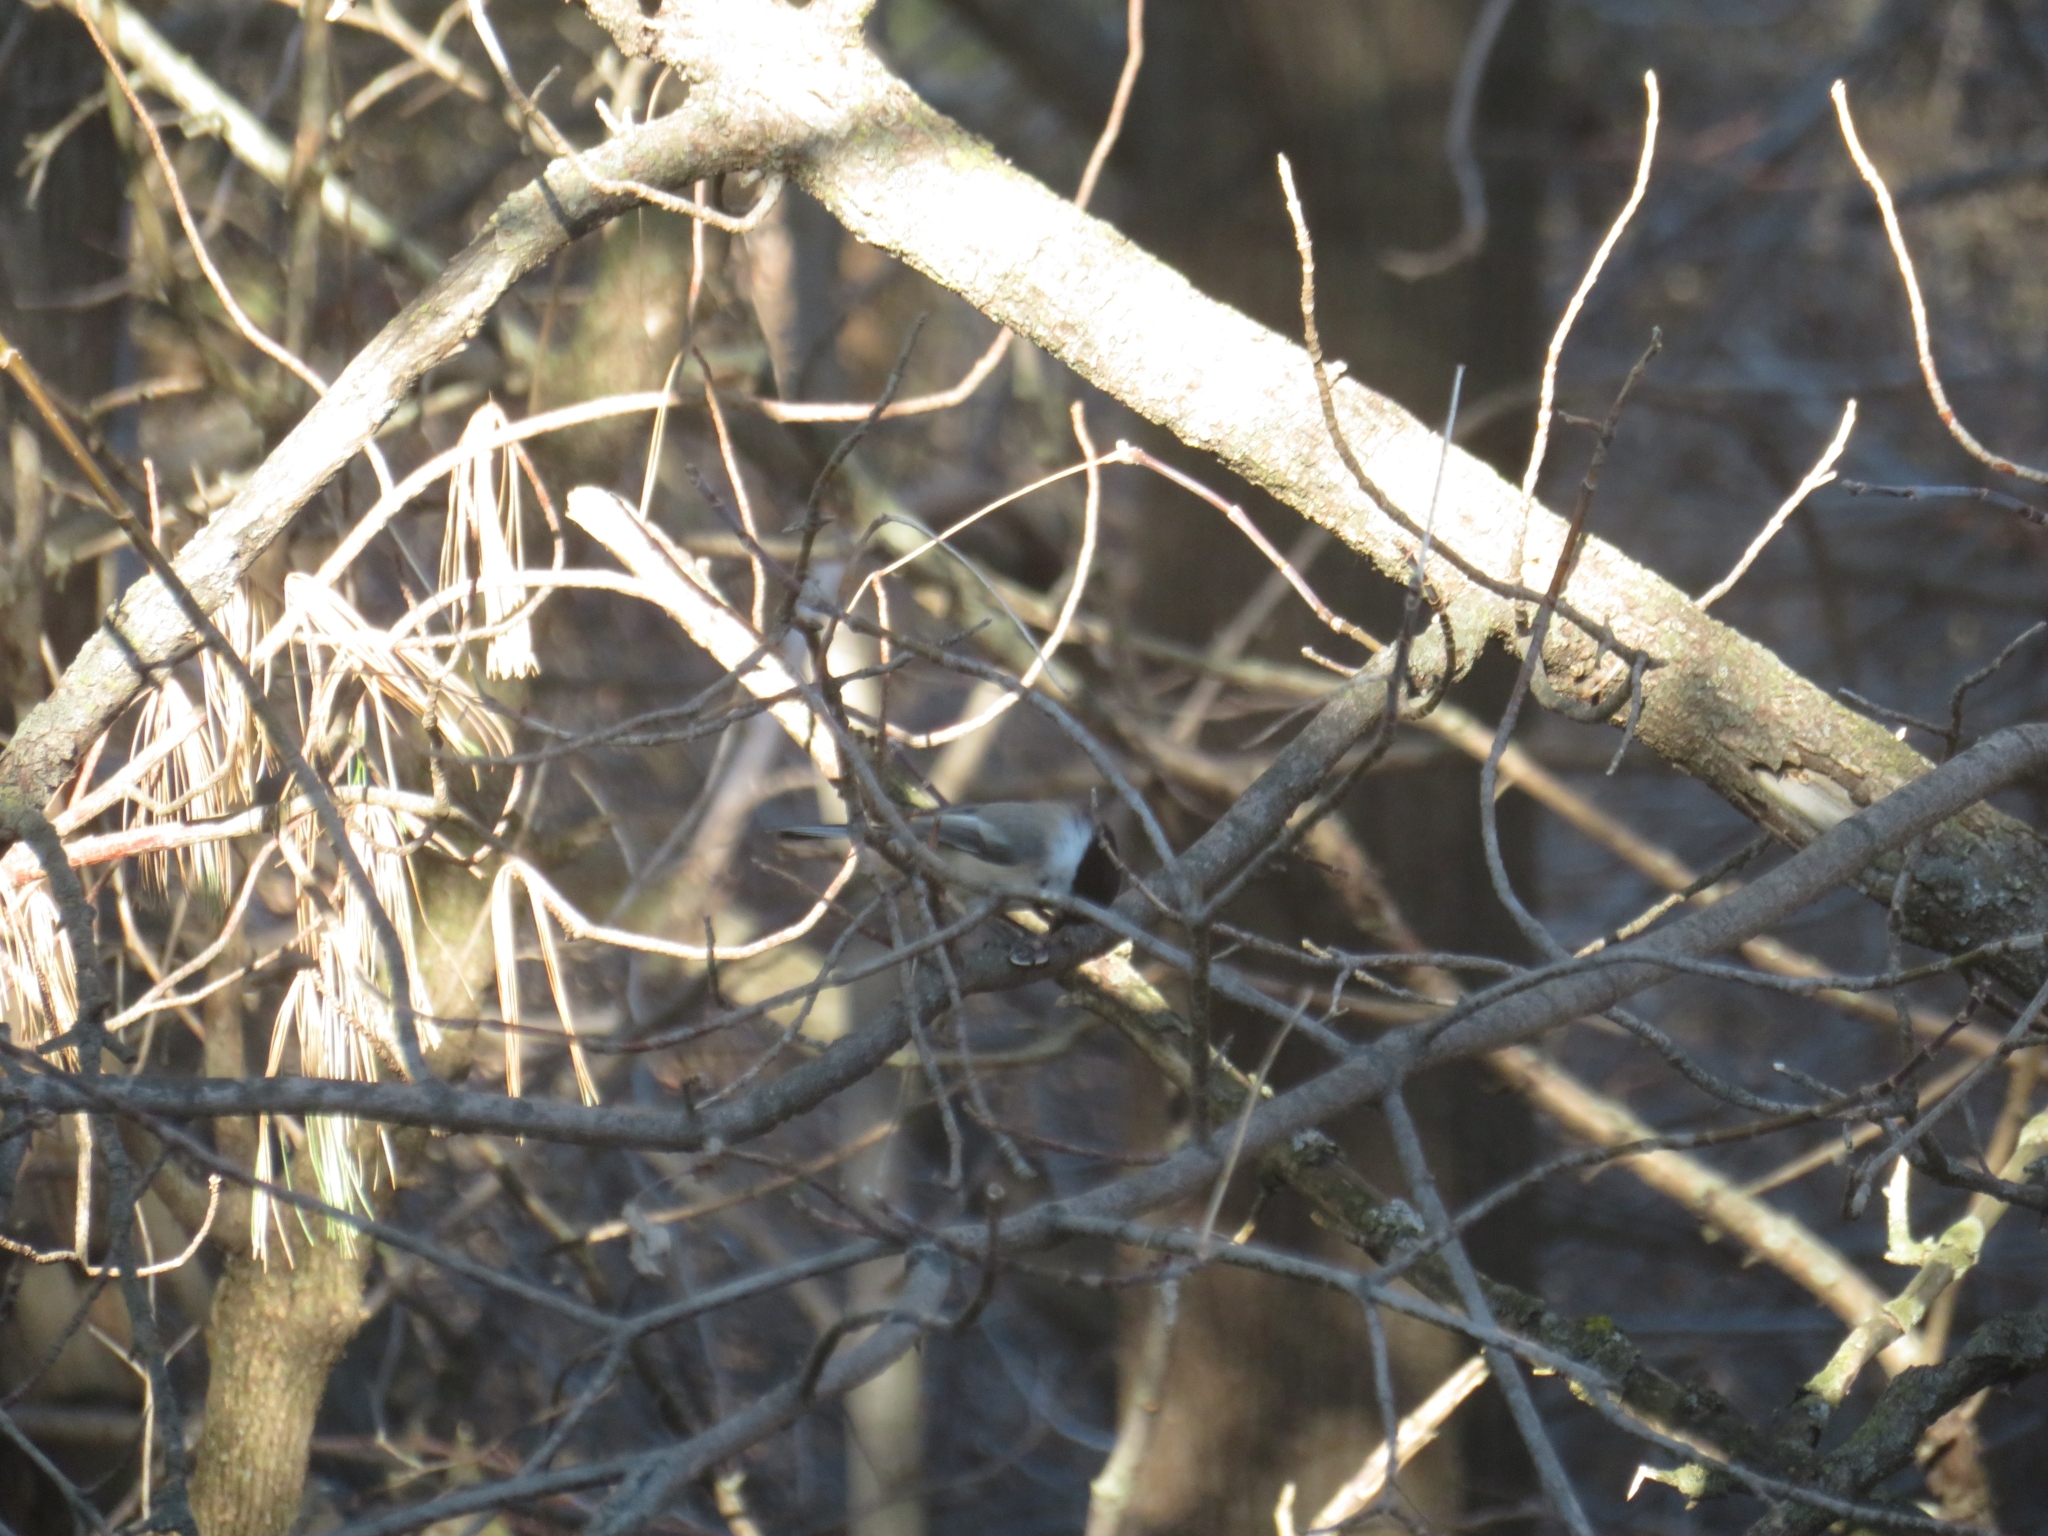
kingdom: Animalia
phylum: Chordata
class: Aves
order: Passeriformes
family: Paridae
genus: Poecile
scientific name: Poecile atricapillus
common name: Black-capped chickadee
